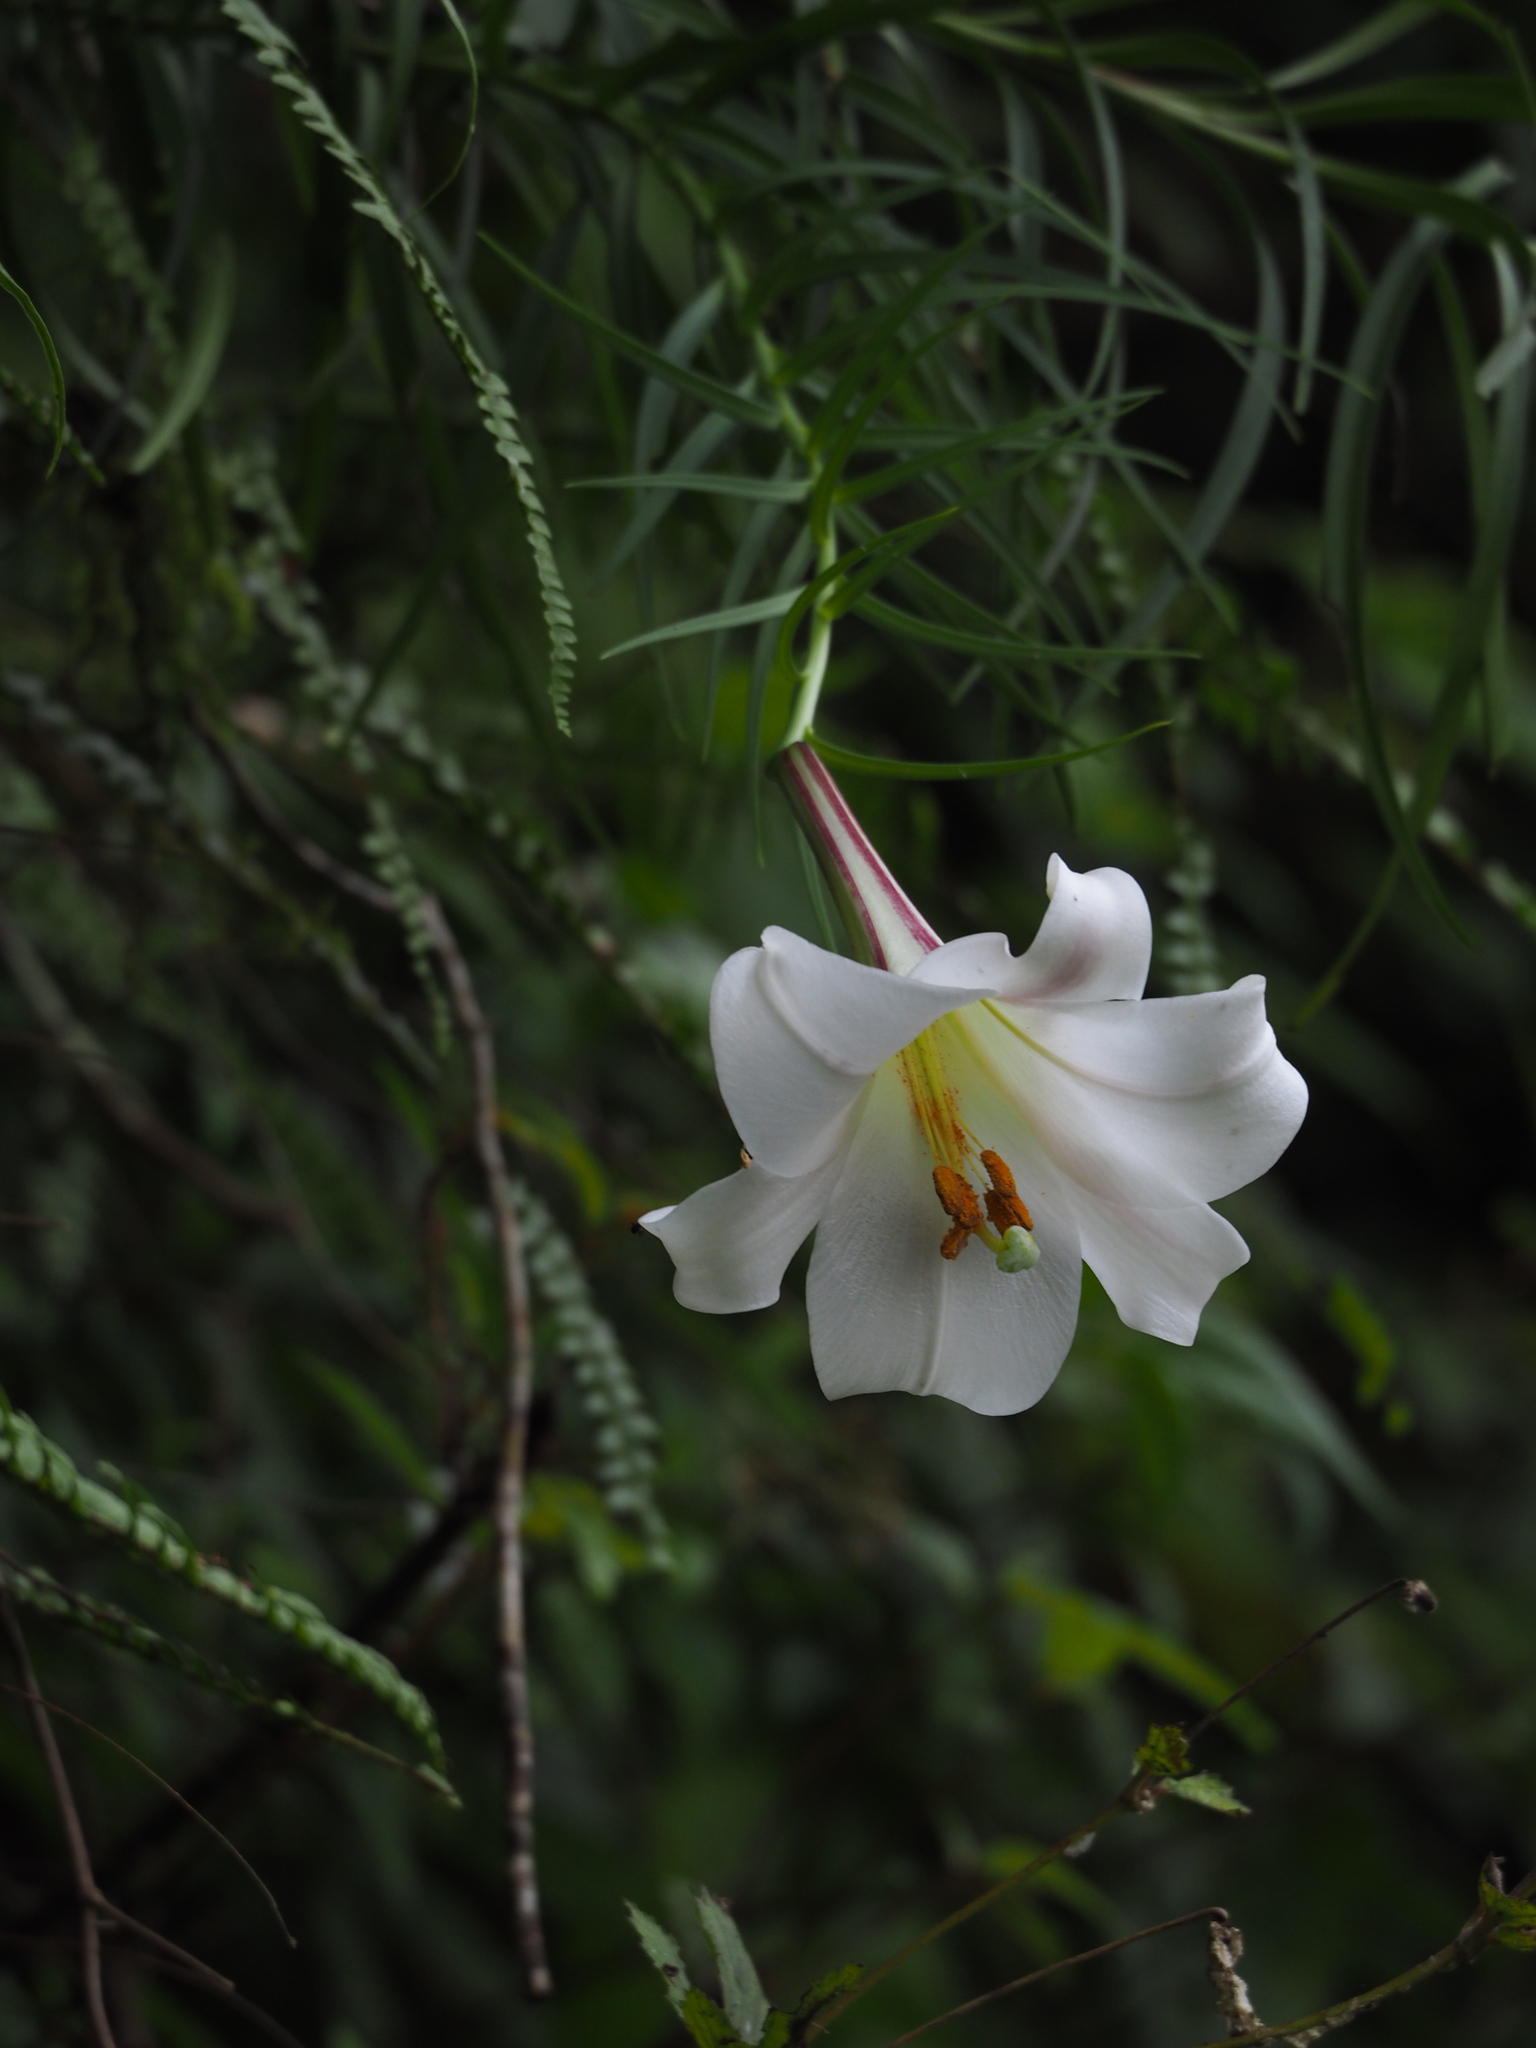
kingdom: Plantae
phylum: Tracheophyta
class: Liliopsida
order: Liliales
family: Liliaceae
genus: Lilium
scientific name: Lilium formosanum
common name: Formosa lily
